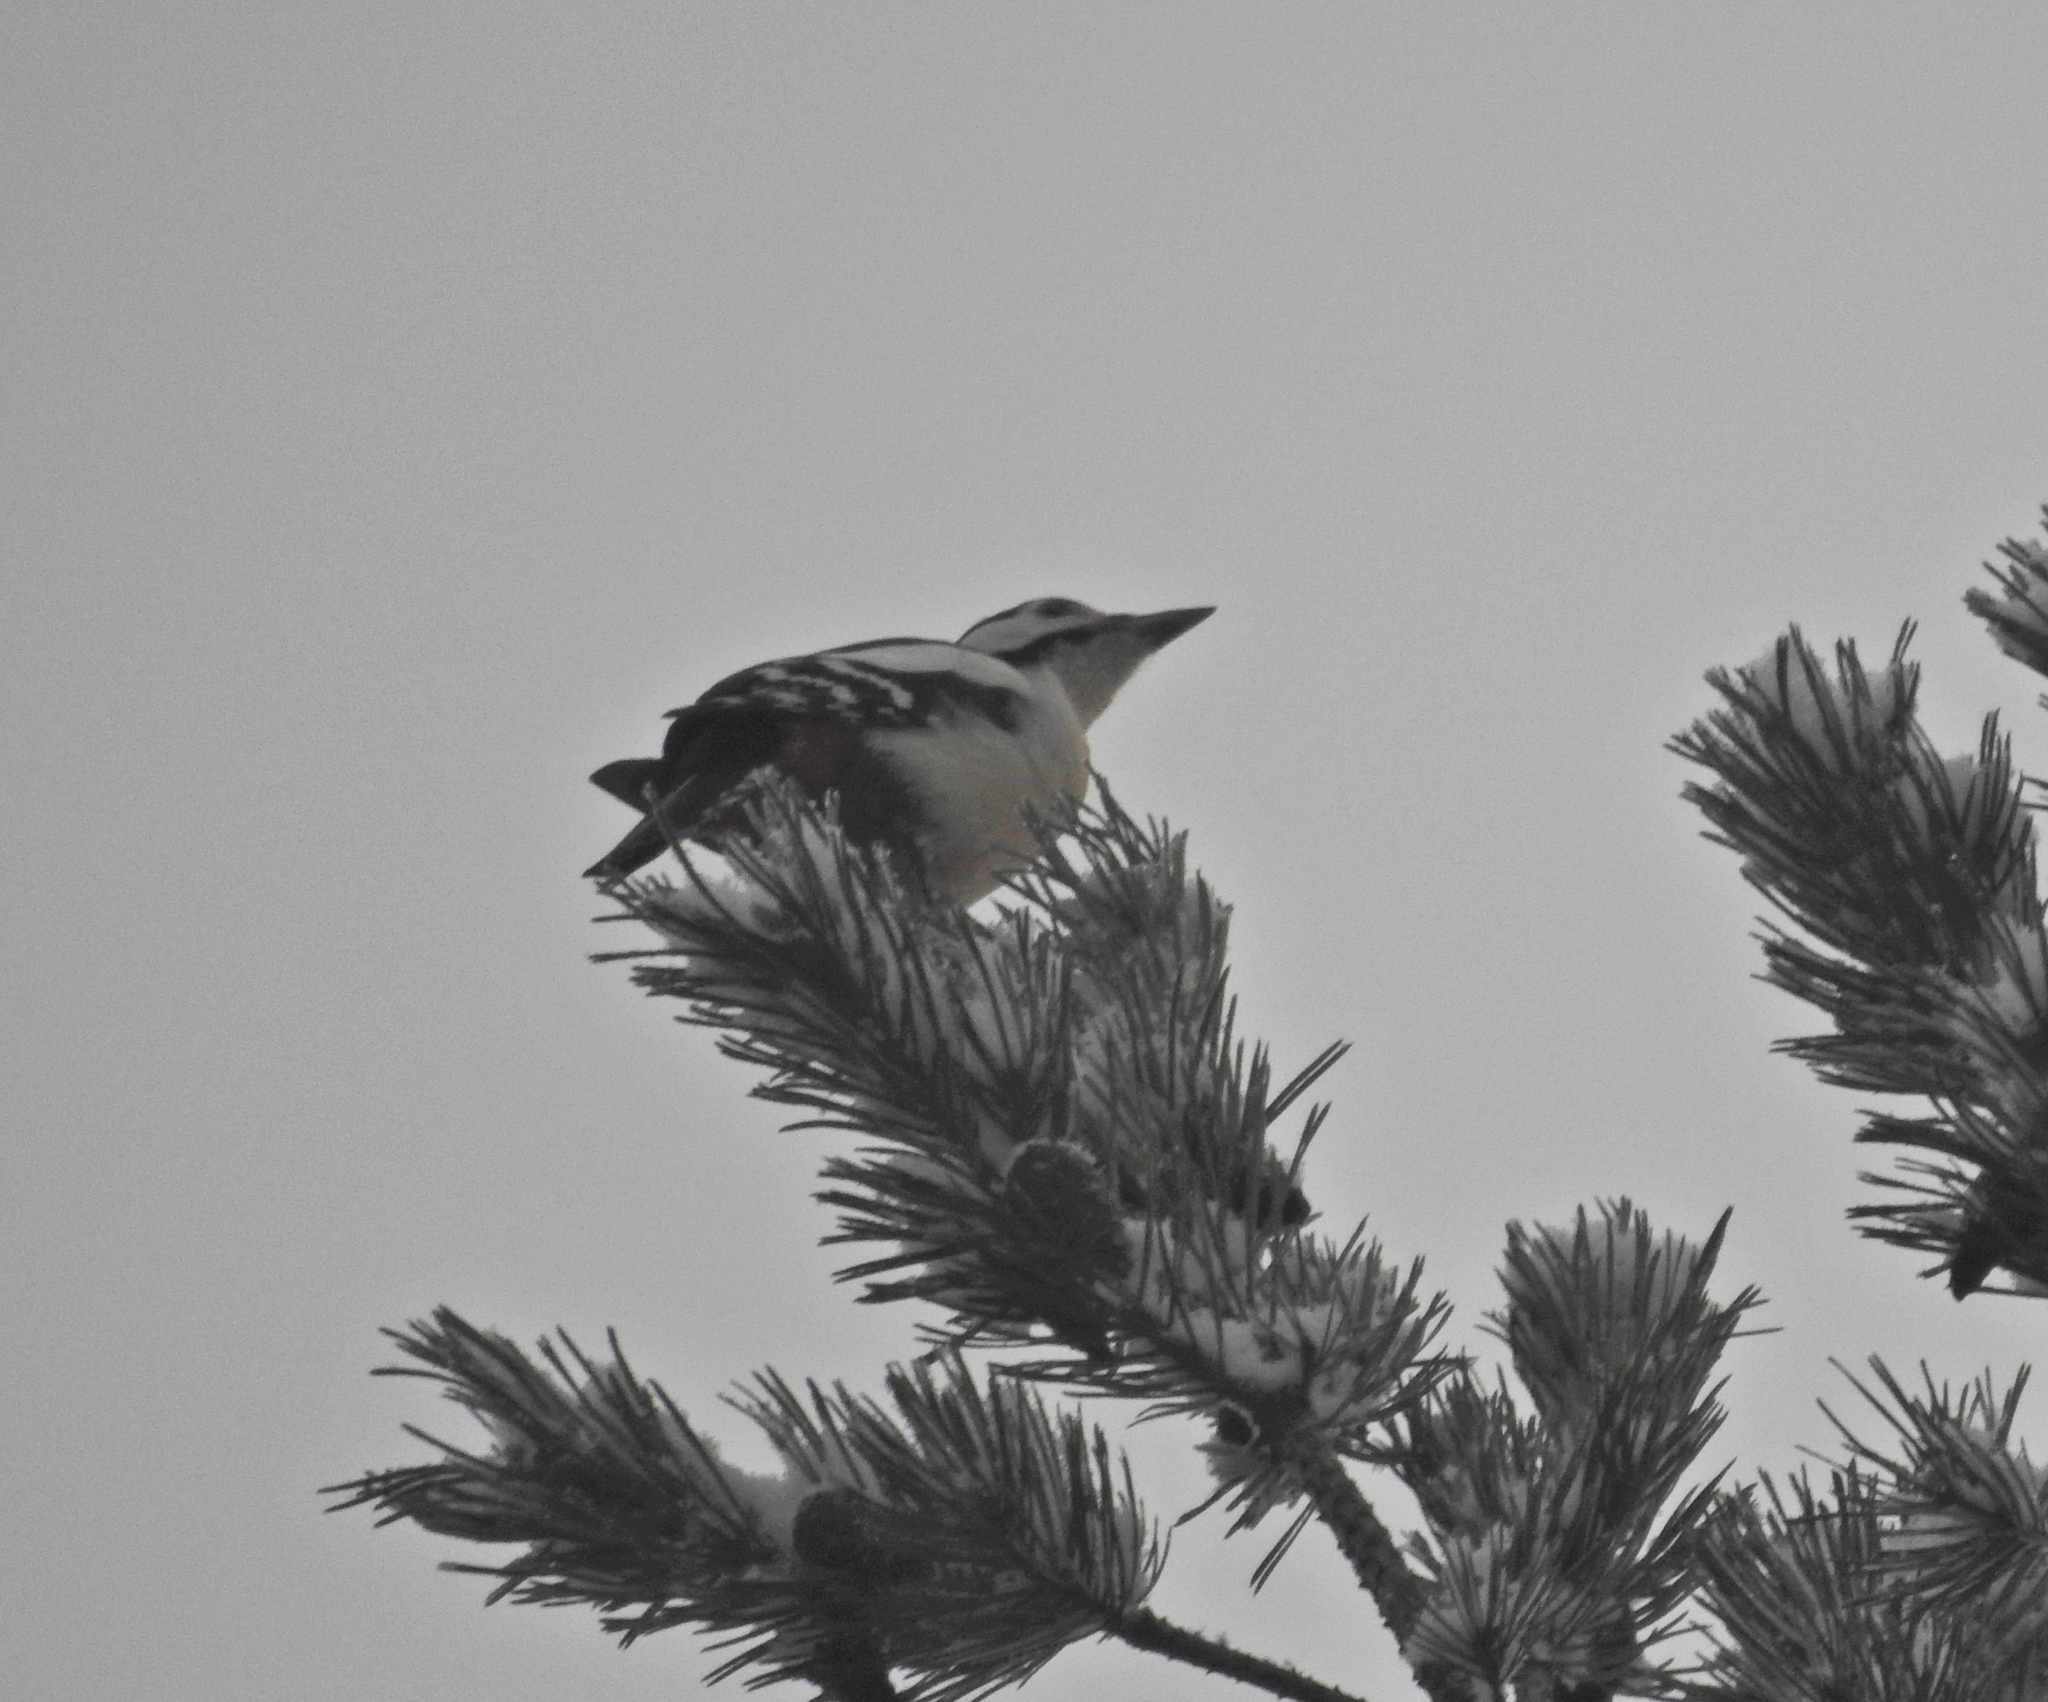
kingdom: Animalia
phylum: Chordata
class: Aves
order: Piciformes
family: Picidae
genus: Dendrocopos
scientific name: Dendrocopos major
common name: Great spotted woodpecker
